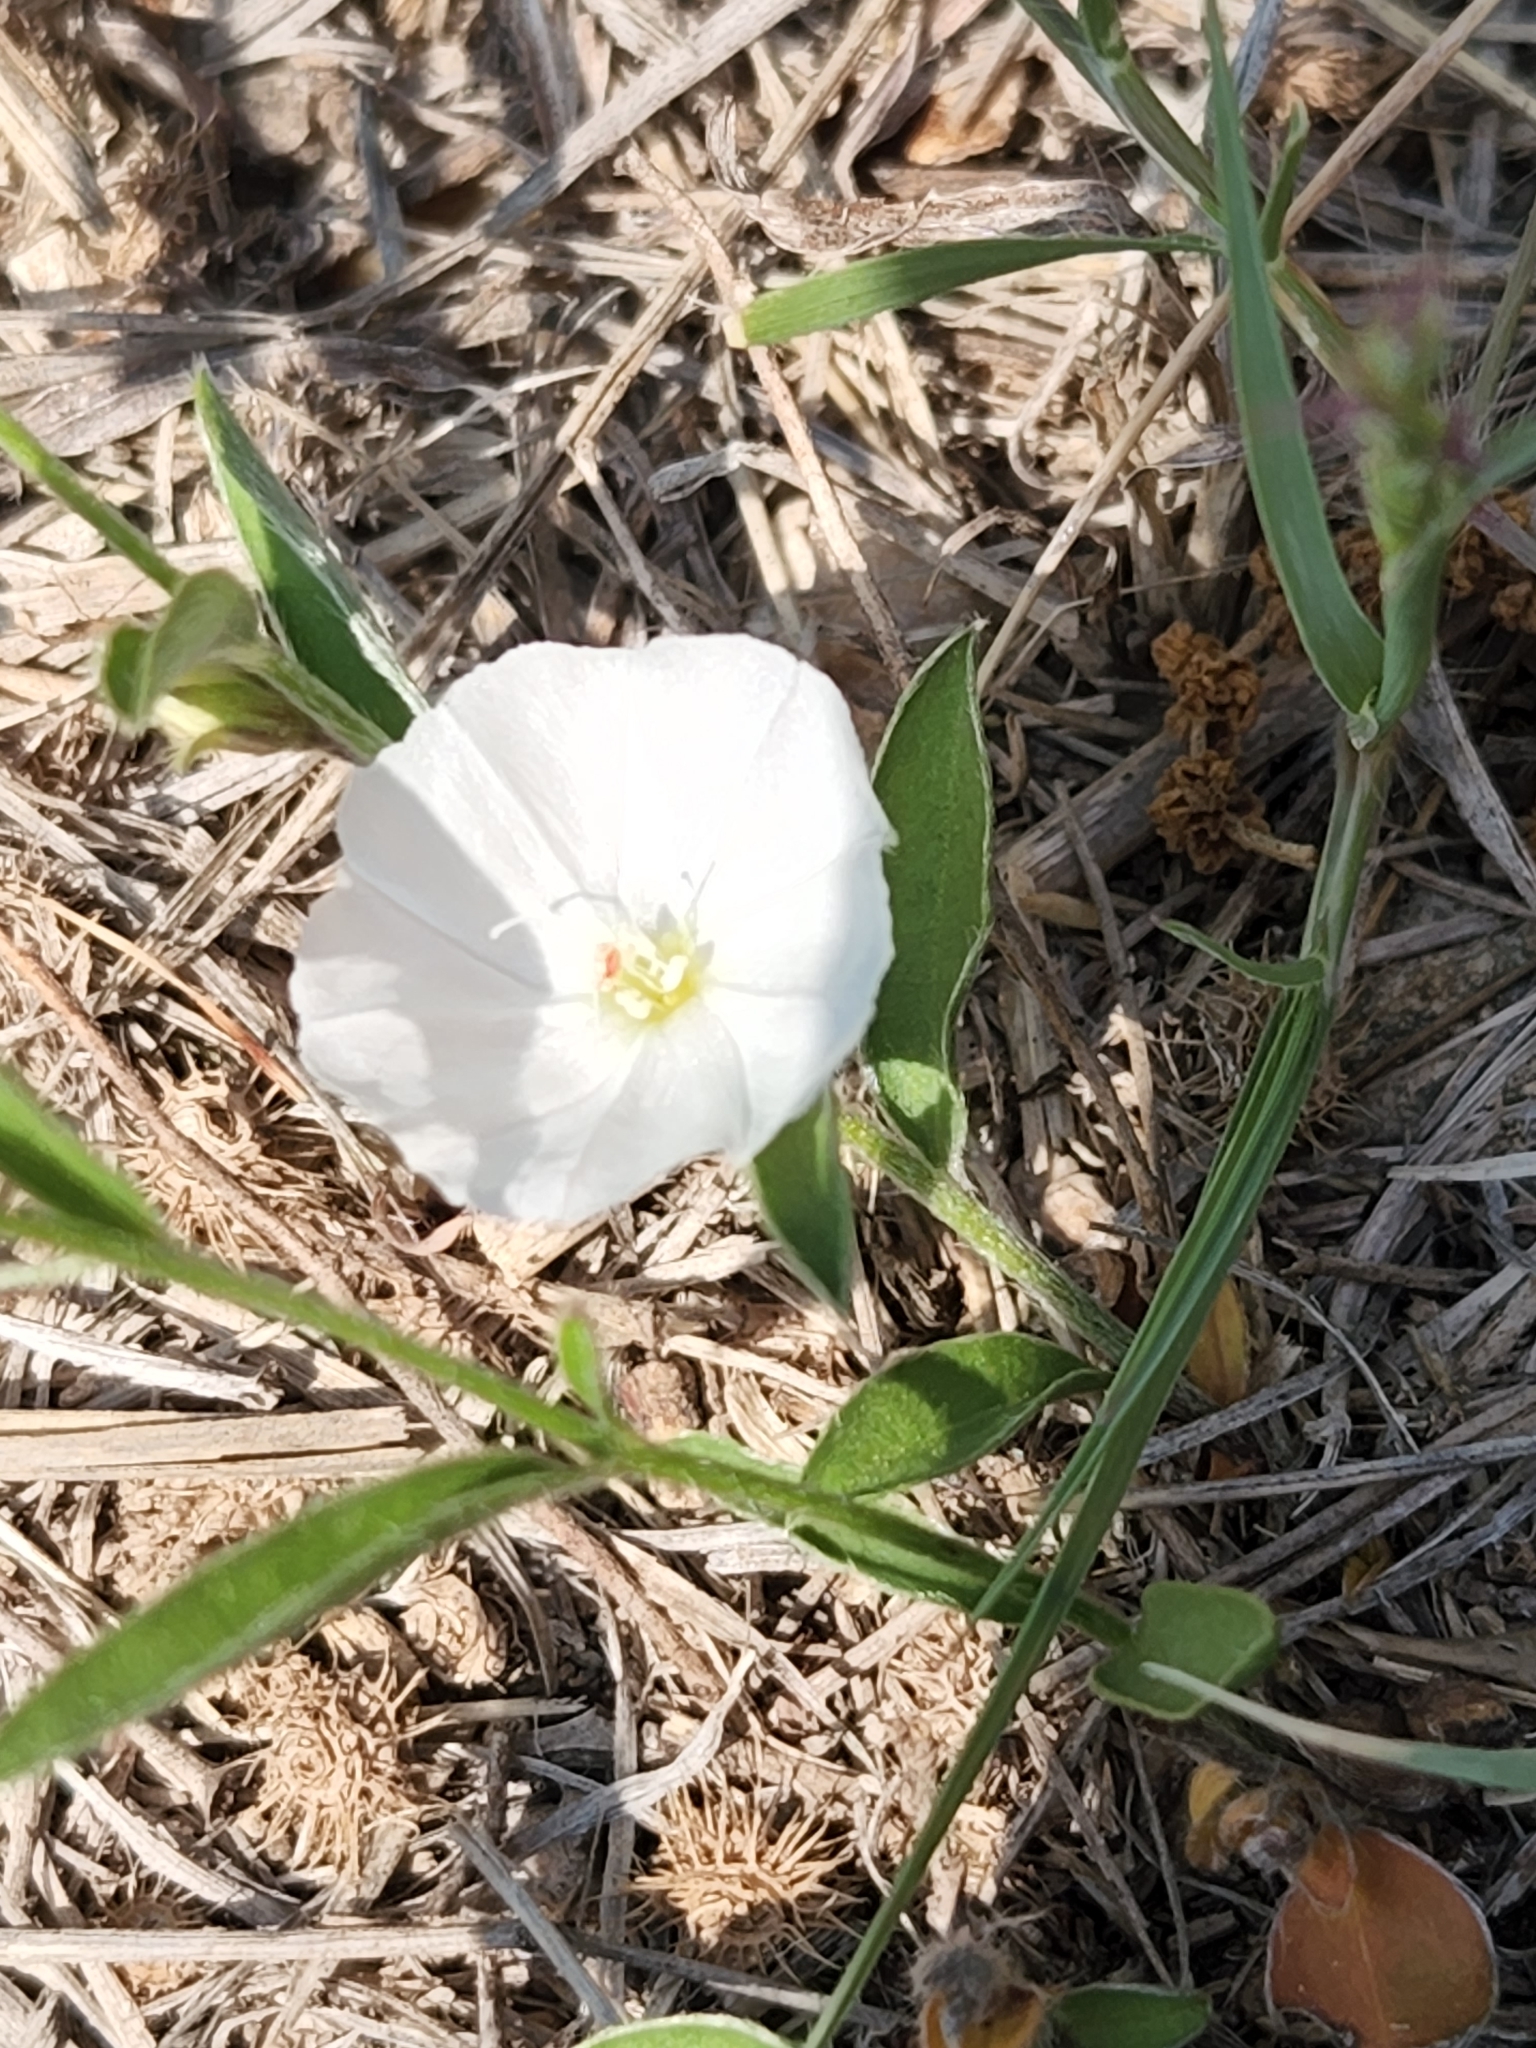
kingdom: Plantae
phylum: Tracheophyta
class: Magnoliopsida
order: Solanales
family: Convolvulaceae
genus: Evolvulus
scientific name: Evolvulus sericeus
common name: Blue dots
